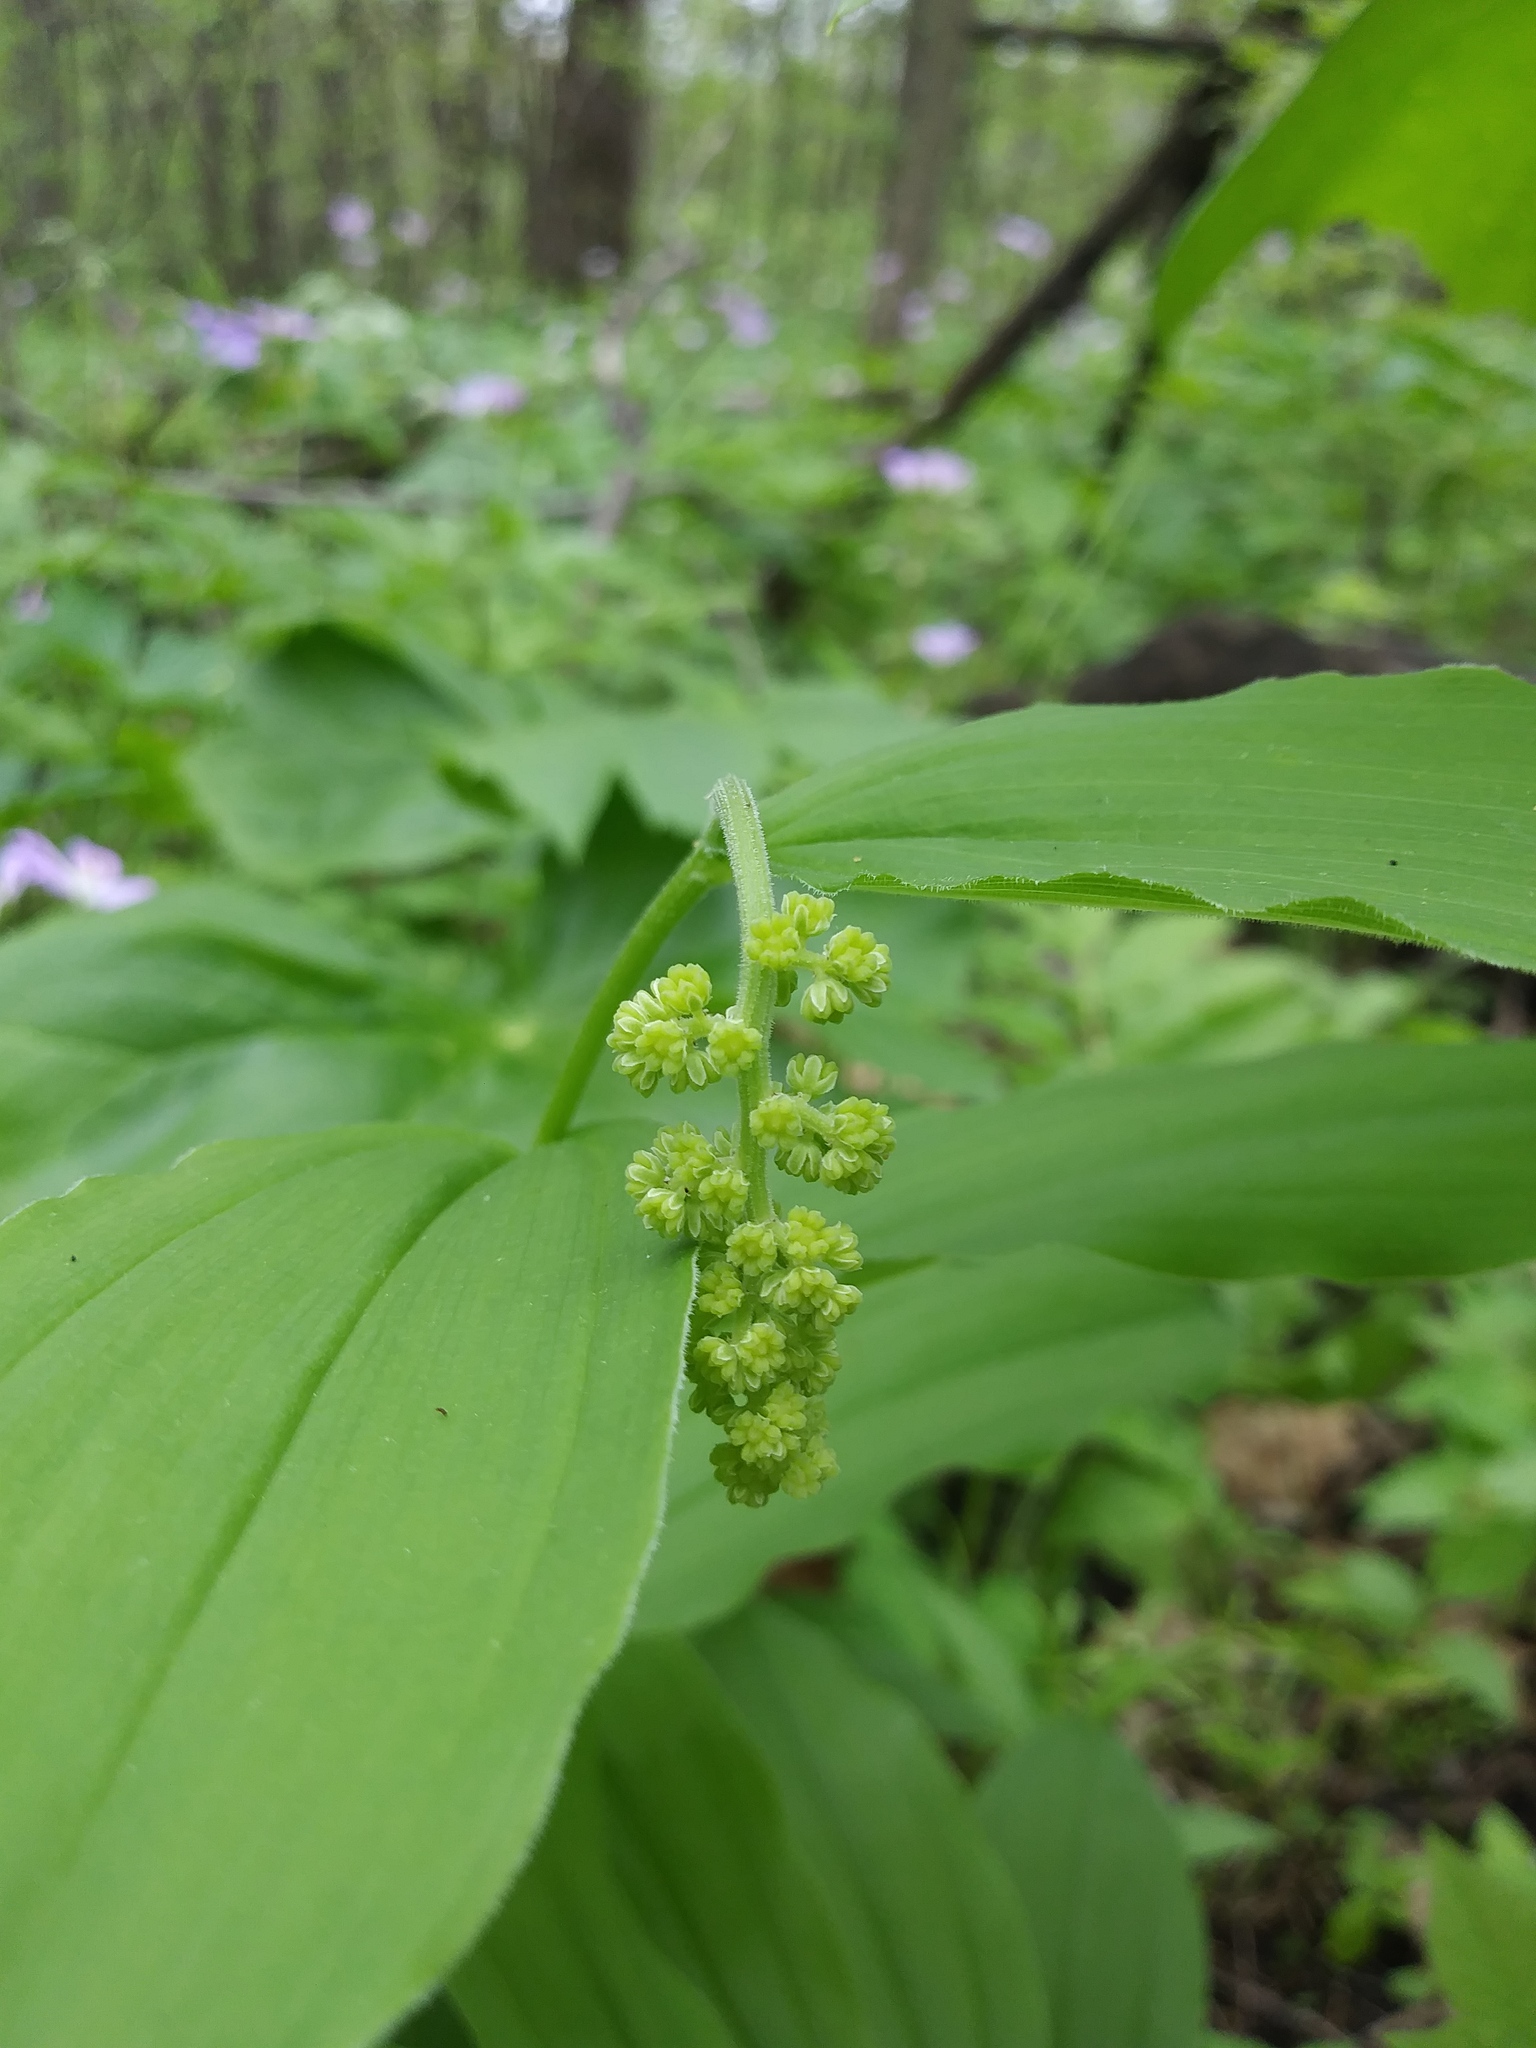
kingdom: Plantae
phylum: Tracheophyta
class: Liliopsida
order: Asparagales
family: Asparagaceae
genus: Maianthemum
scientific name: Maianthemum racemosum
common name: False spikenard
